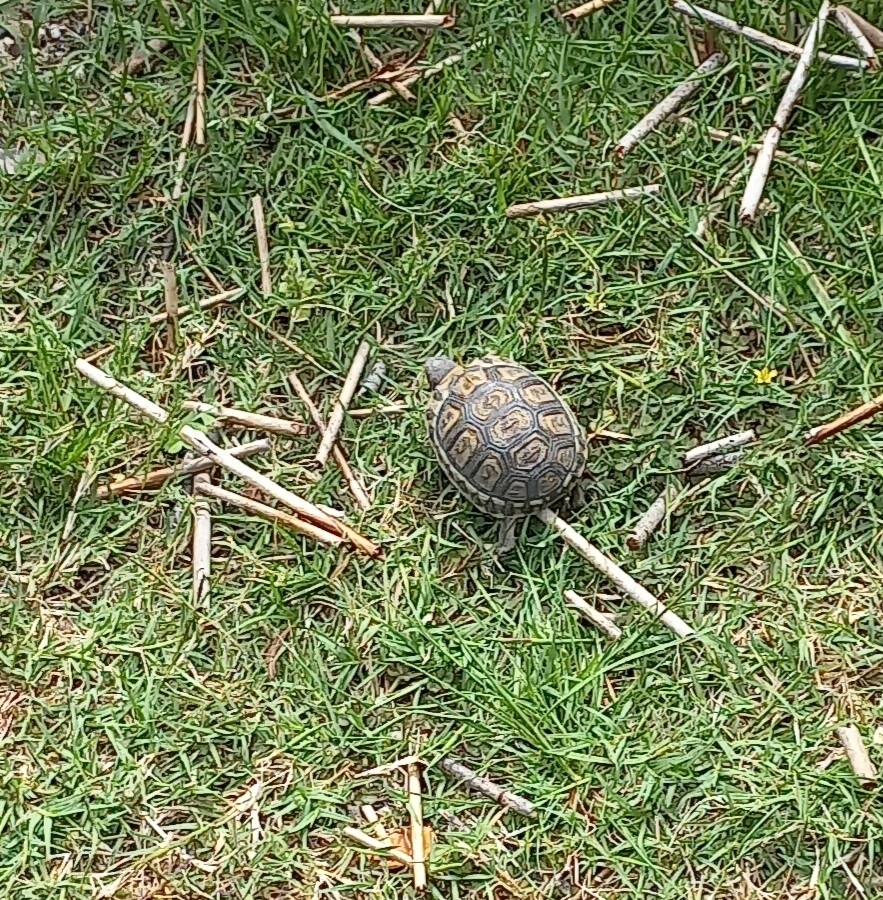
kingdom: Animalia
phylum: Chordata
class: Testudines
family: Testudinidae
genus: Chersina
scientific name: Chersina angulata
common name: South african bowsprit tortoise
